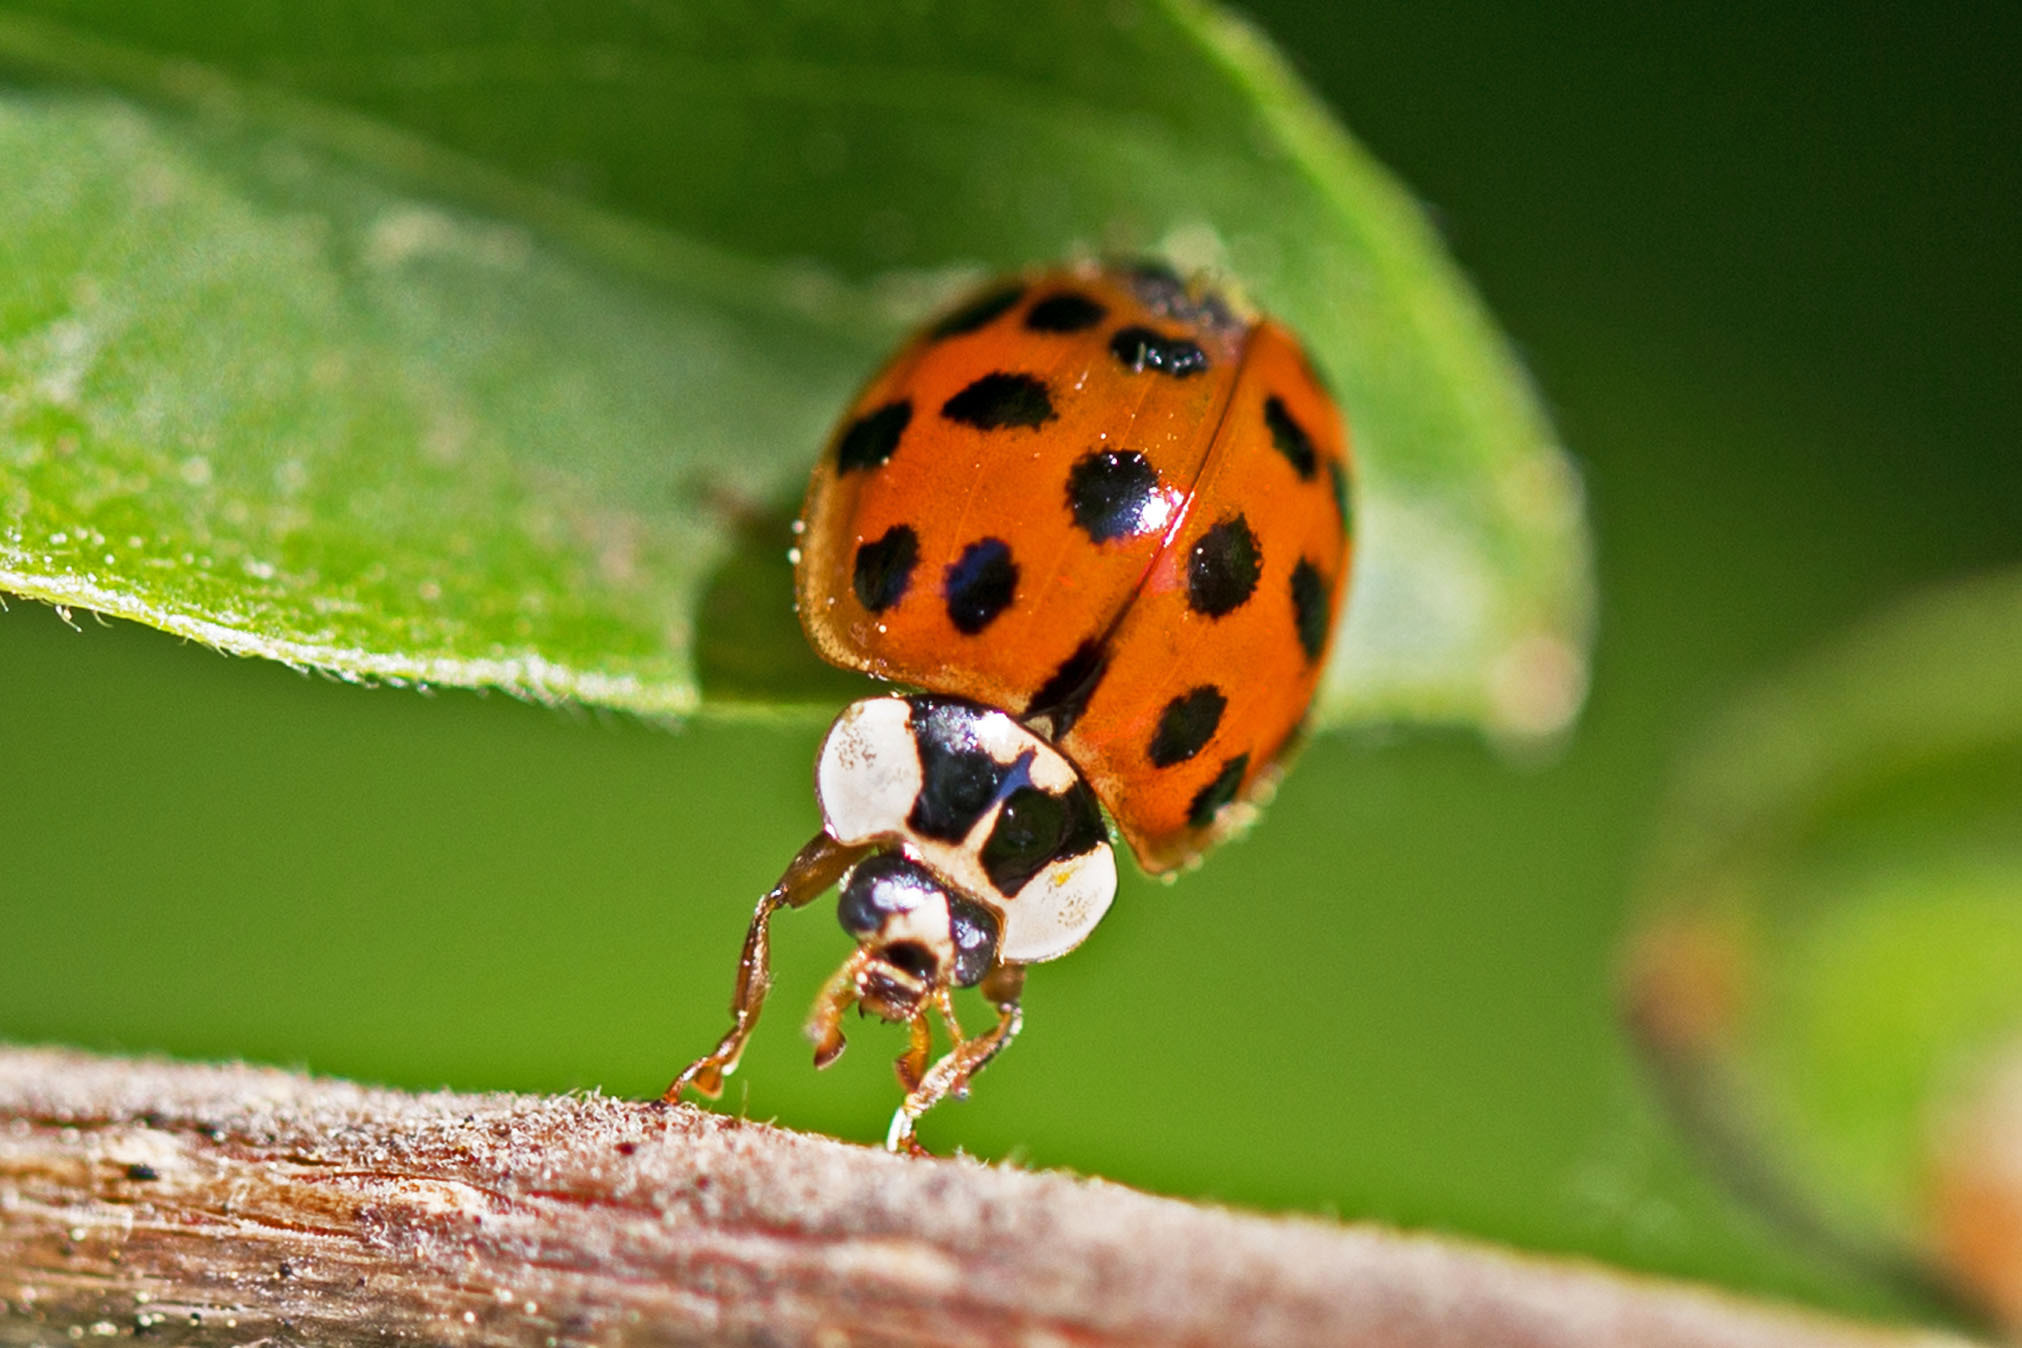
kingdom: Animalia
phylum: Arthropoda
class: Insecta
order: Coleoptera
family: Coccinellidae
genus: Harmonia
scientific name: Harmonia axyridis
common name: Harlequin ladybird
